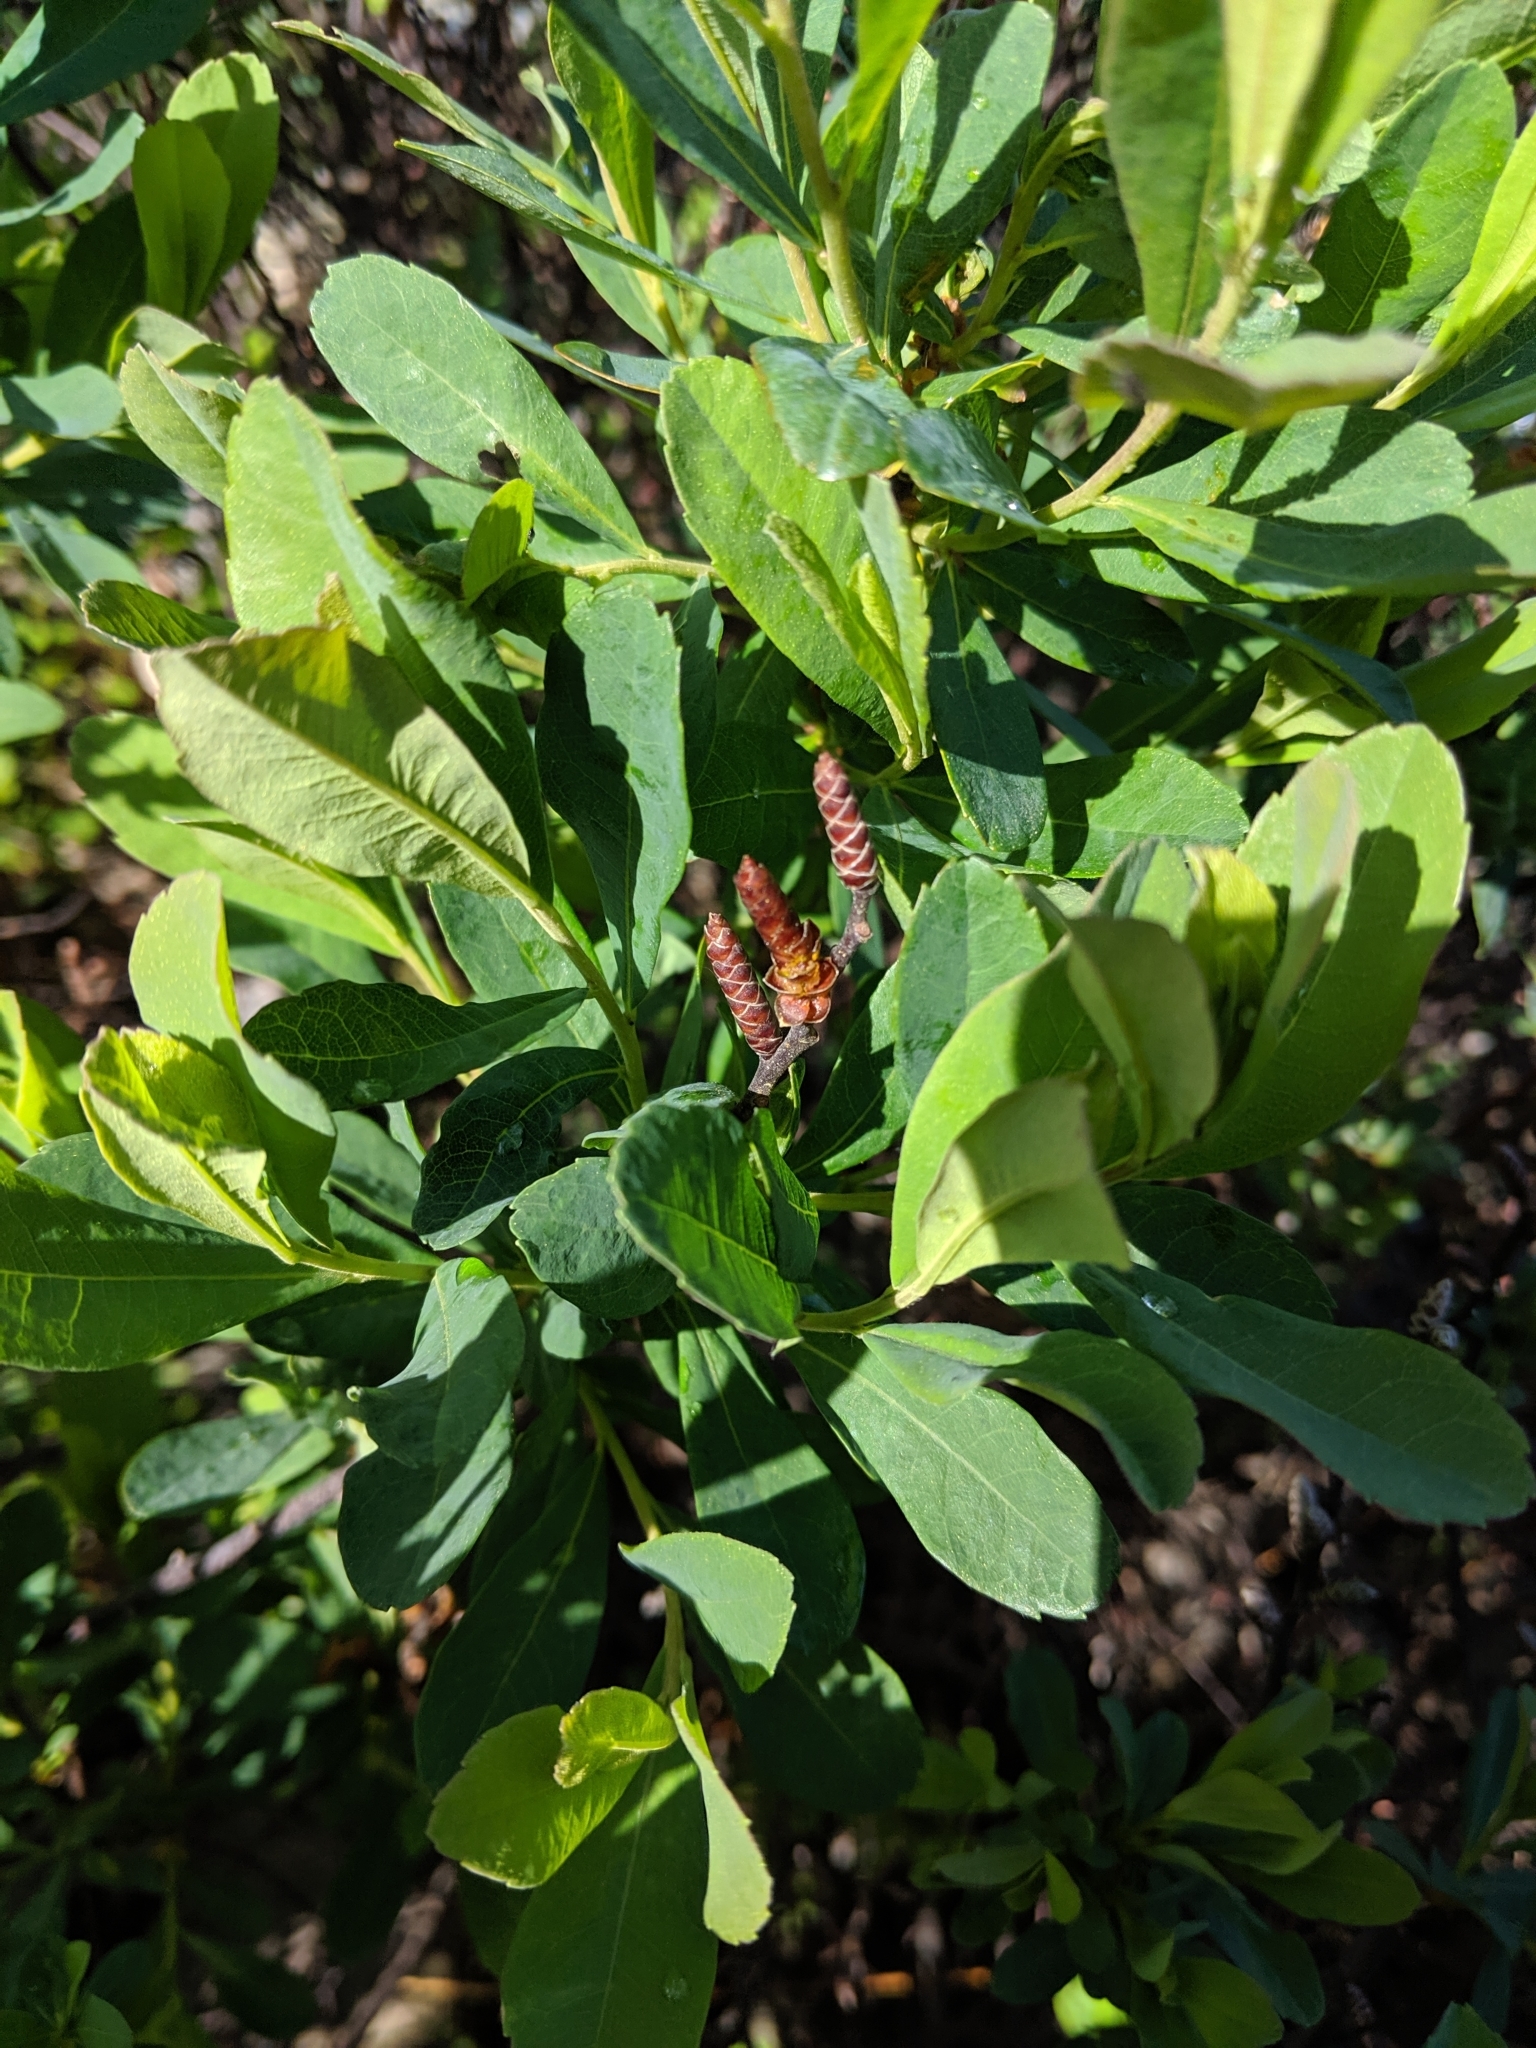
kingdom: Plantae
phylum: Tracheophyta
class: Magnoliopsida
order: Fagales
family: Myricaceae
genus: Myrica
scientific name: Myrica gale
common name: Sweet gale
